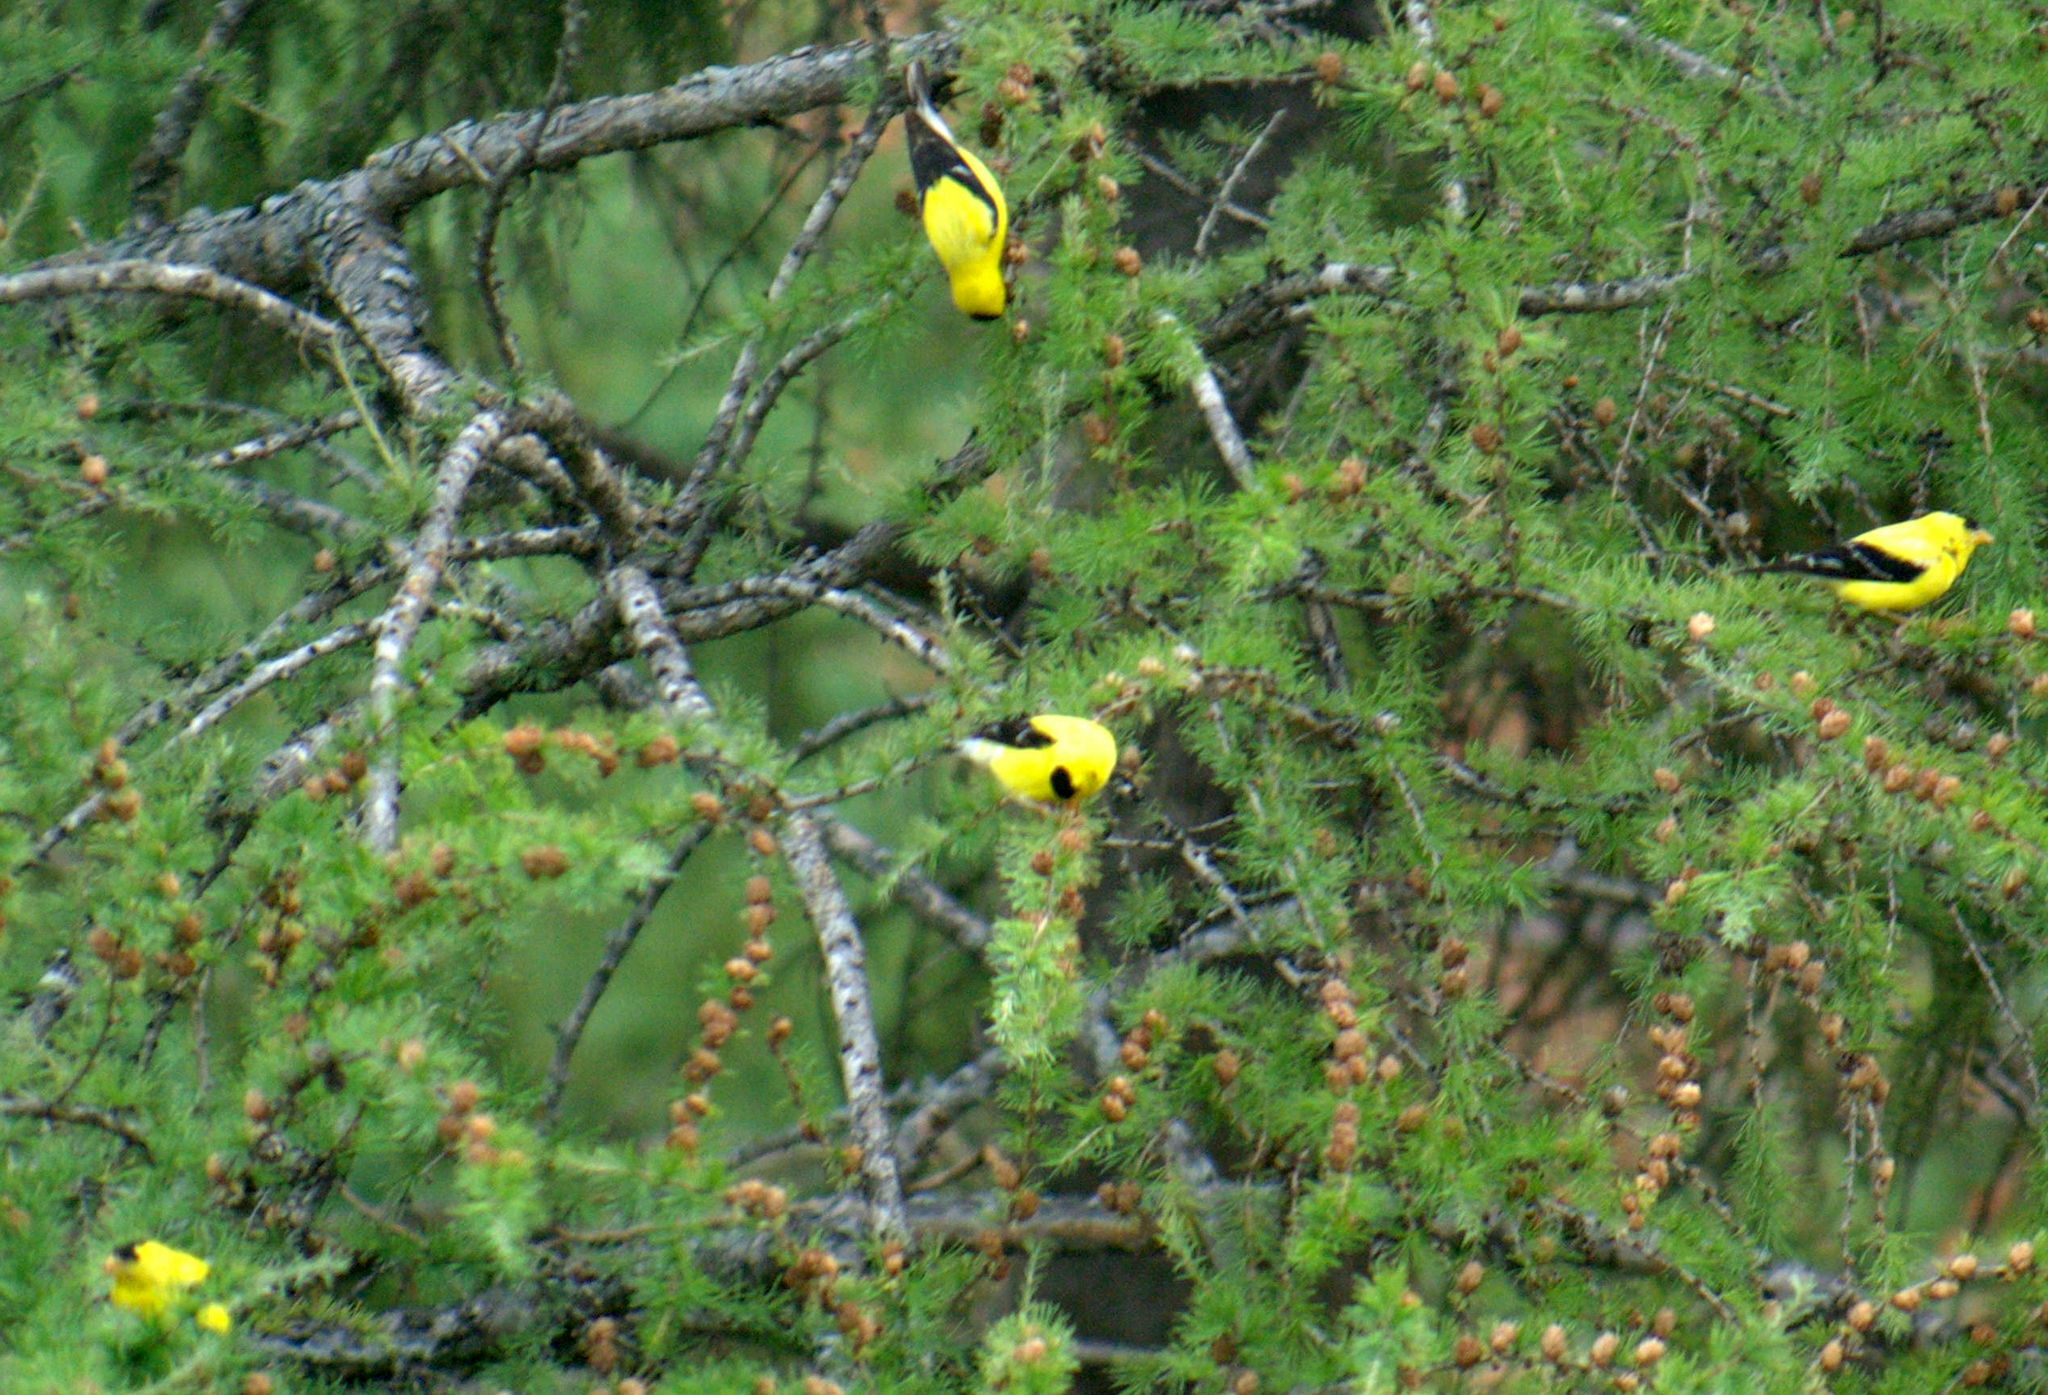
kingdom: Animalia
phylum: Chordata
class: Aves
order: Passeriformes
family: Fringillidae
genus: Spinus
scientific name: Spinus tristis
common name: American goldfinch
